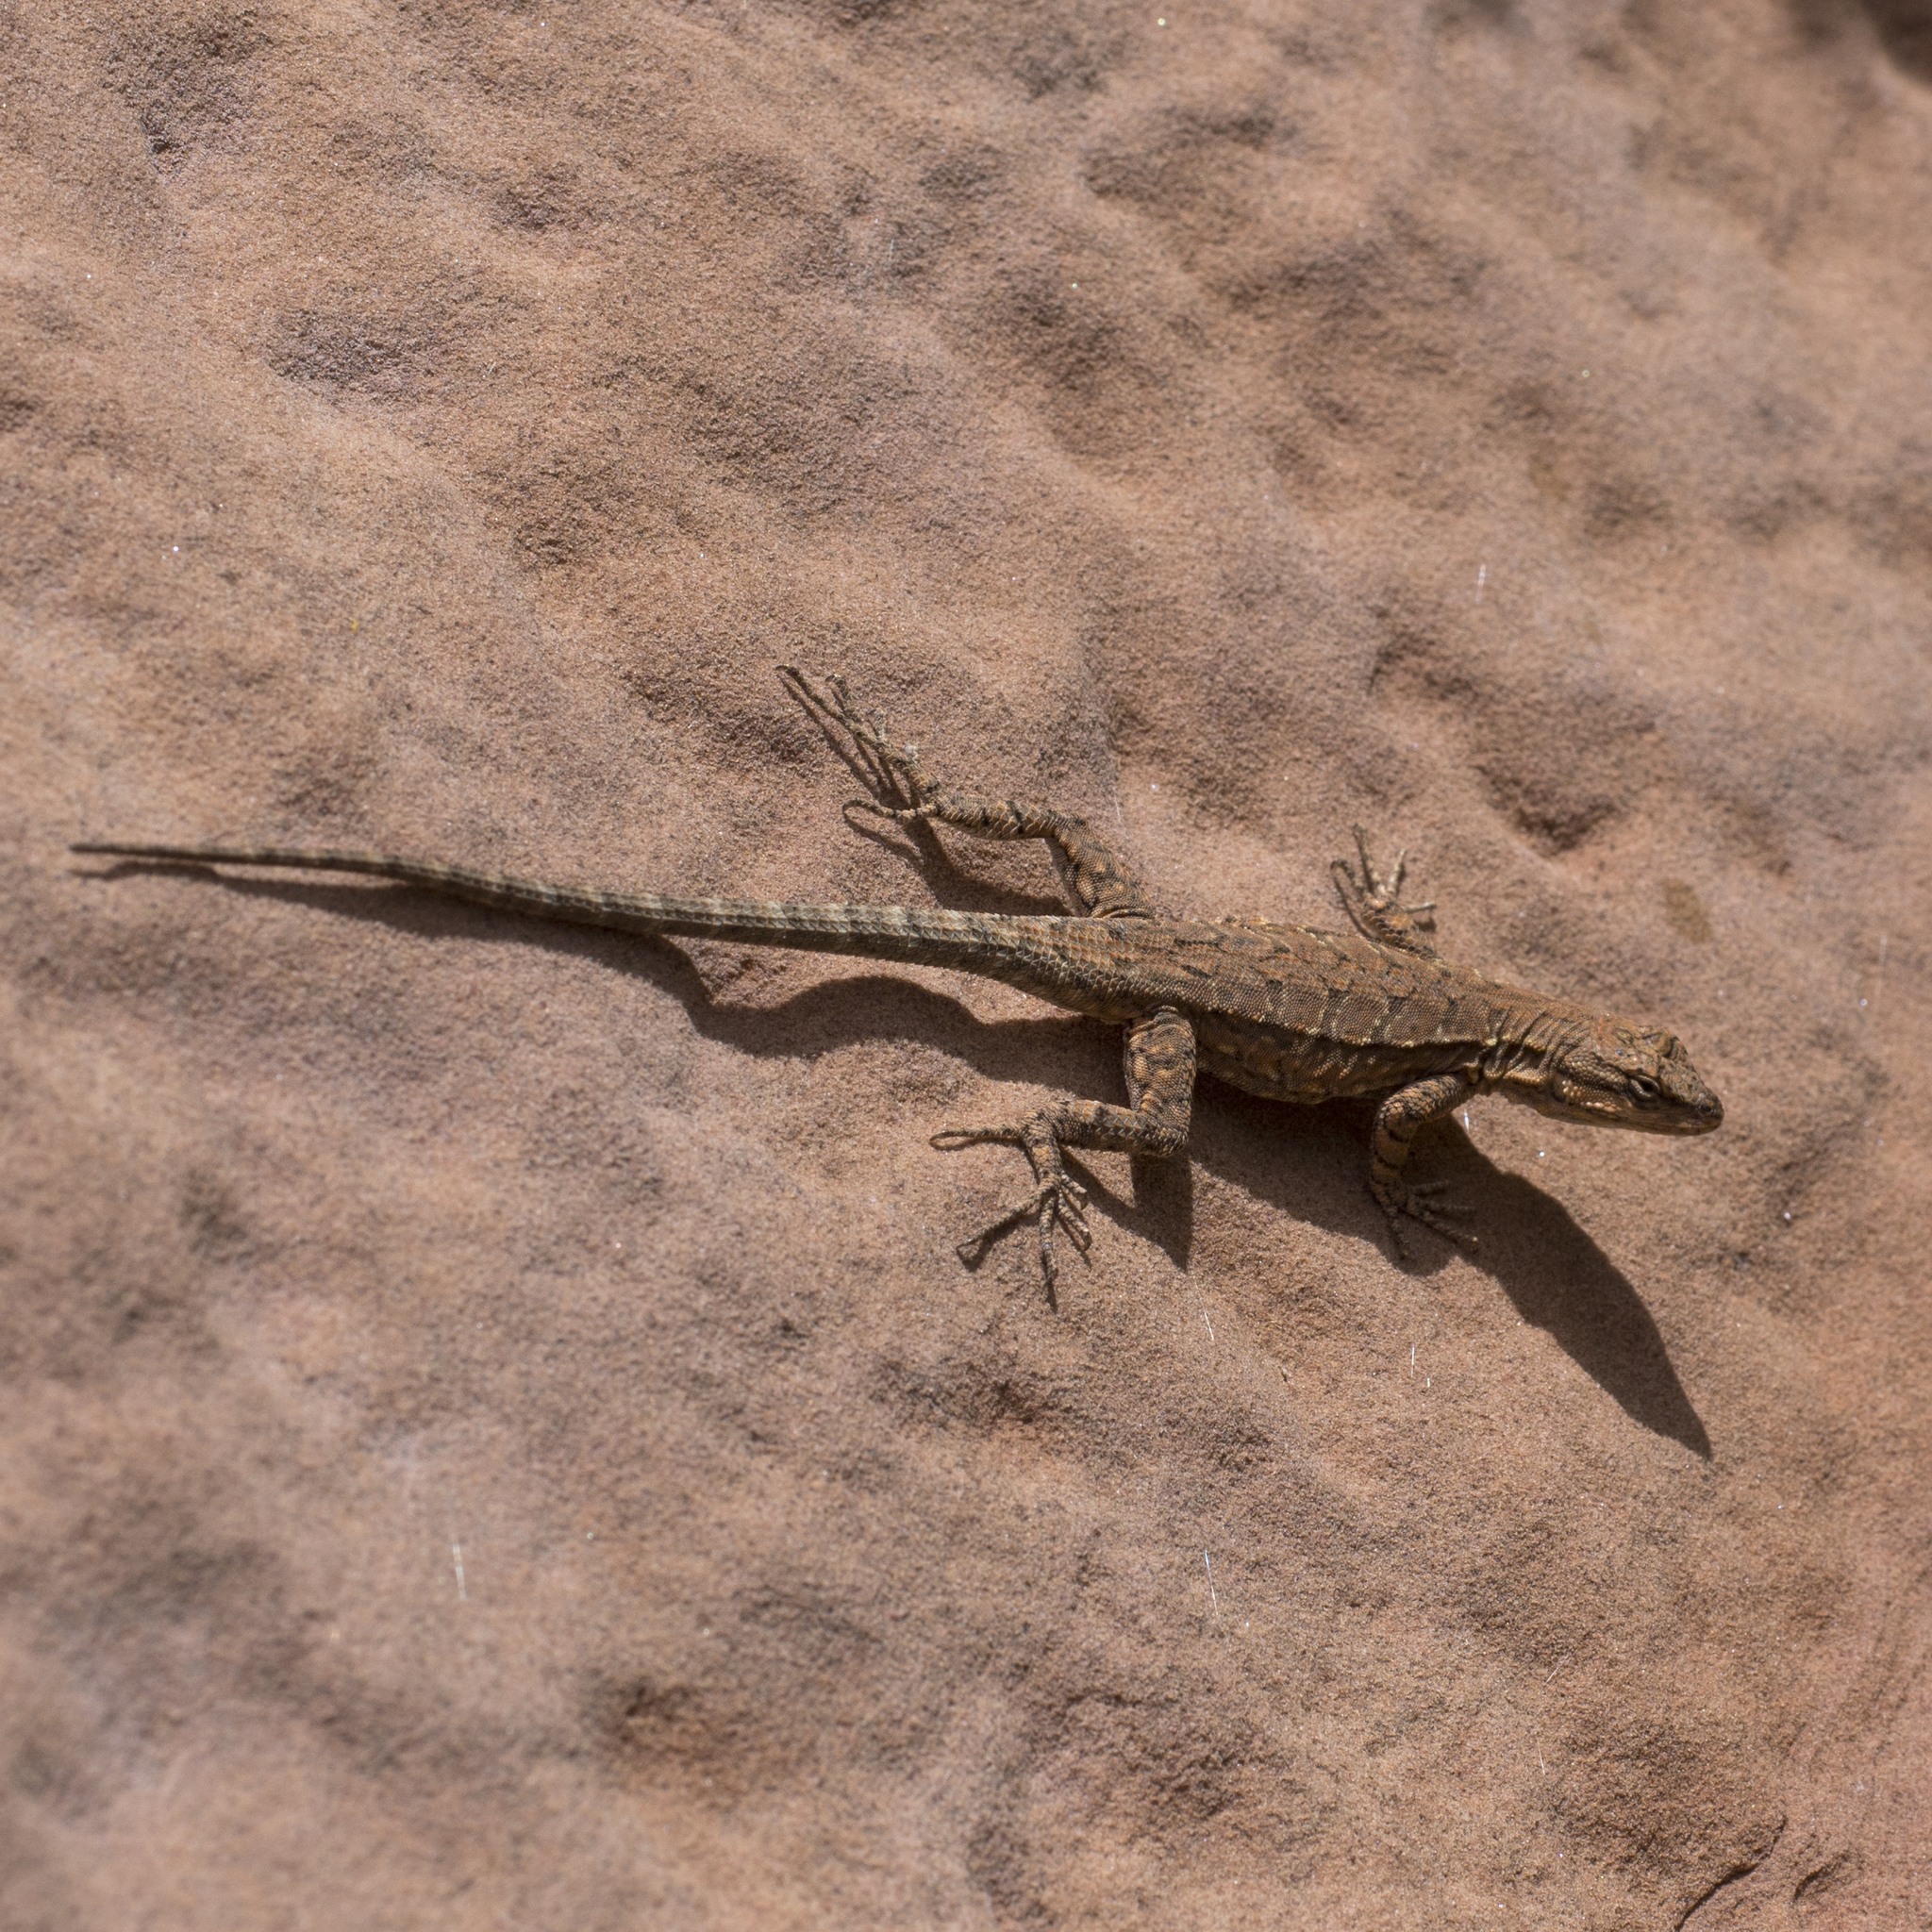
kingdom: Animalia
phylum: Chordata
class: Squamata
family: Phrynosomatidae
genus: Urosaurus
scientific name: Urosaurus ornatus
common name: Ornate tree lizard
